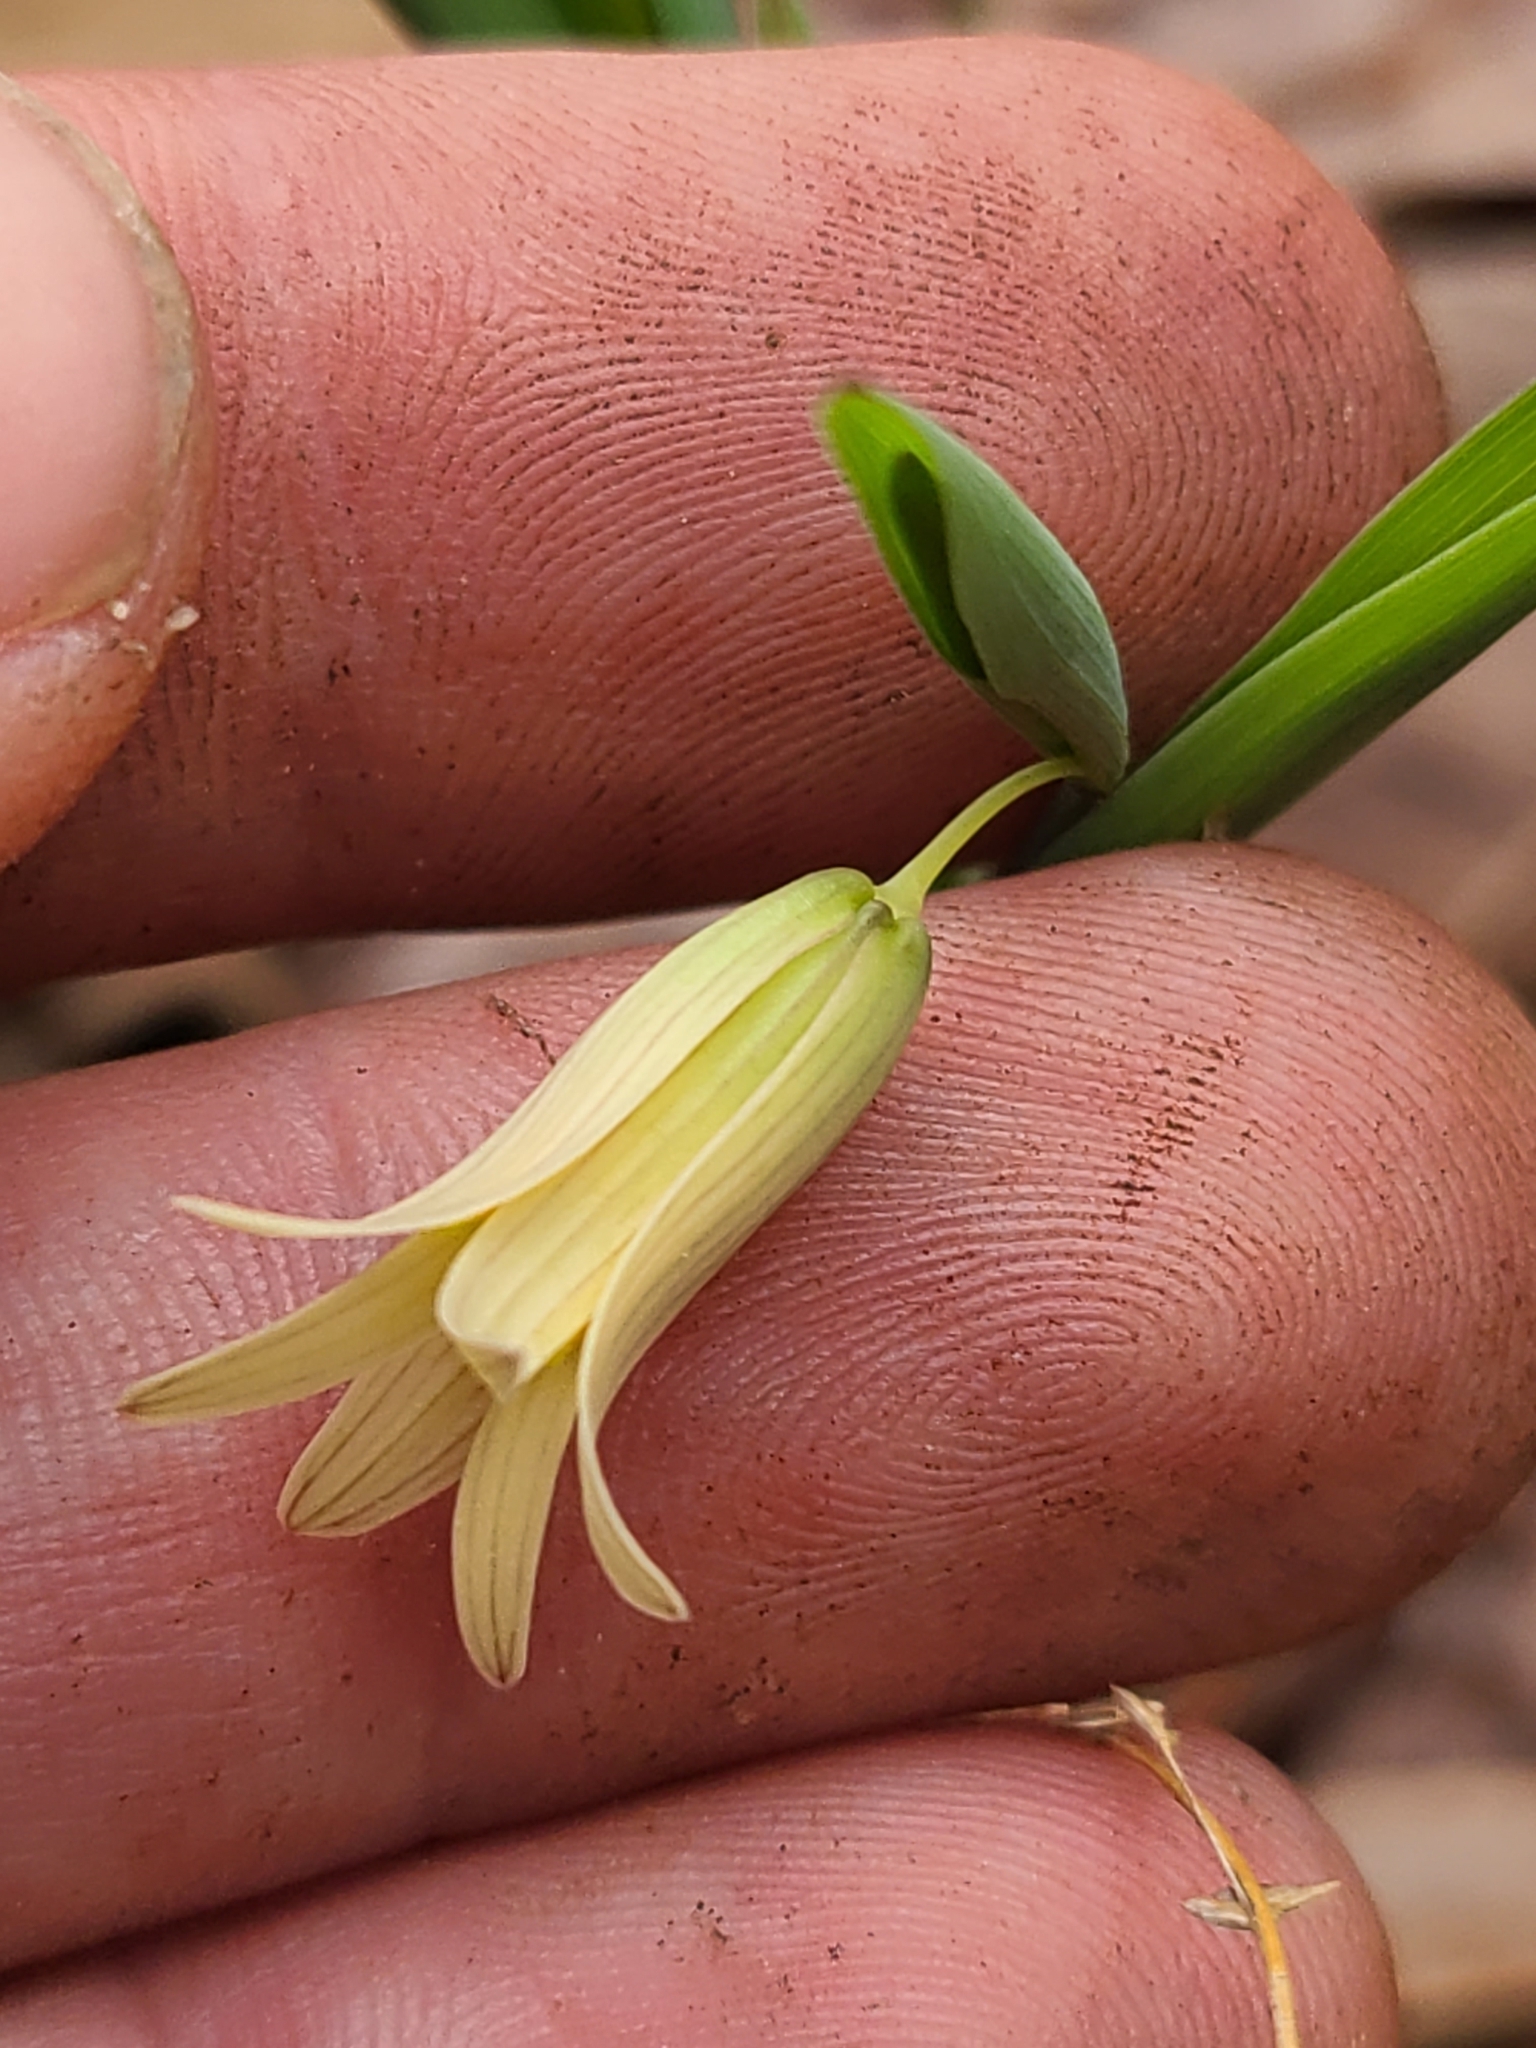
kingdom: Plantae
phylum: Tracheophyta
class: Liliopsida
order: Liliales
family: Colchicaceae
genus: Uvularia
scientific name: Uvularia sessilifolia
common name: Straw-lily
